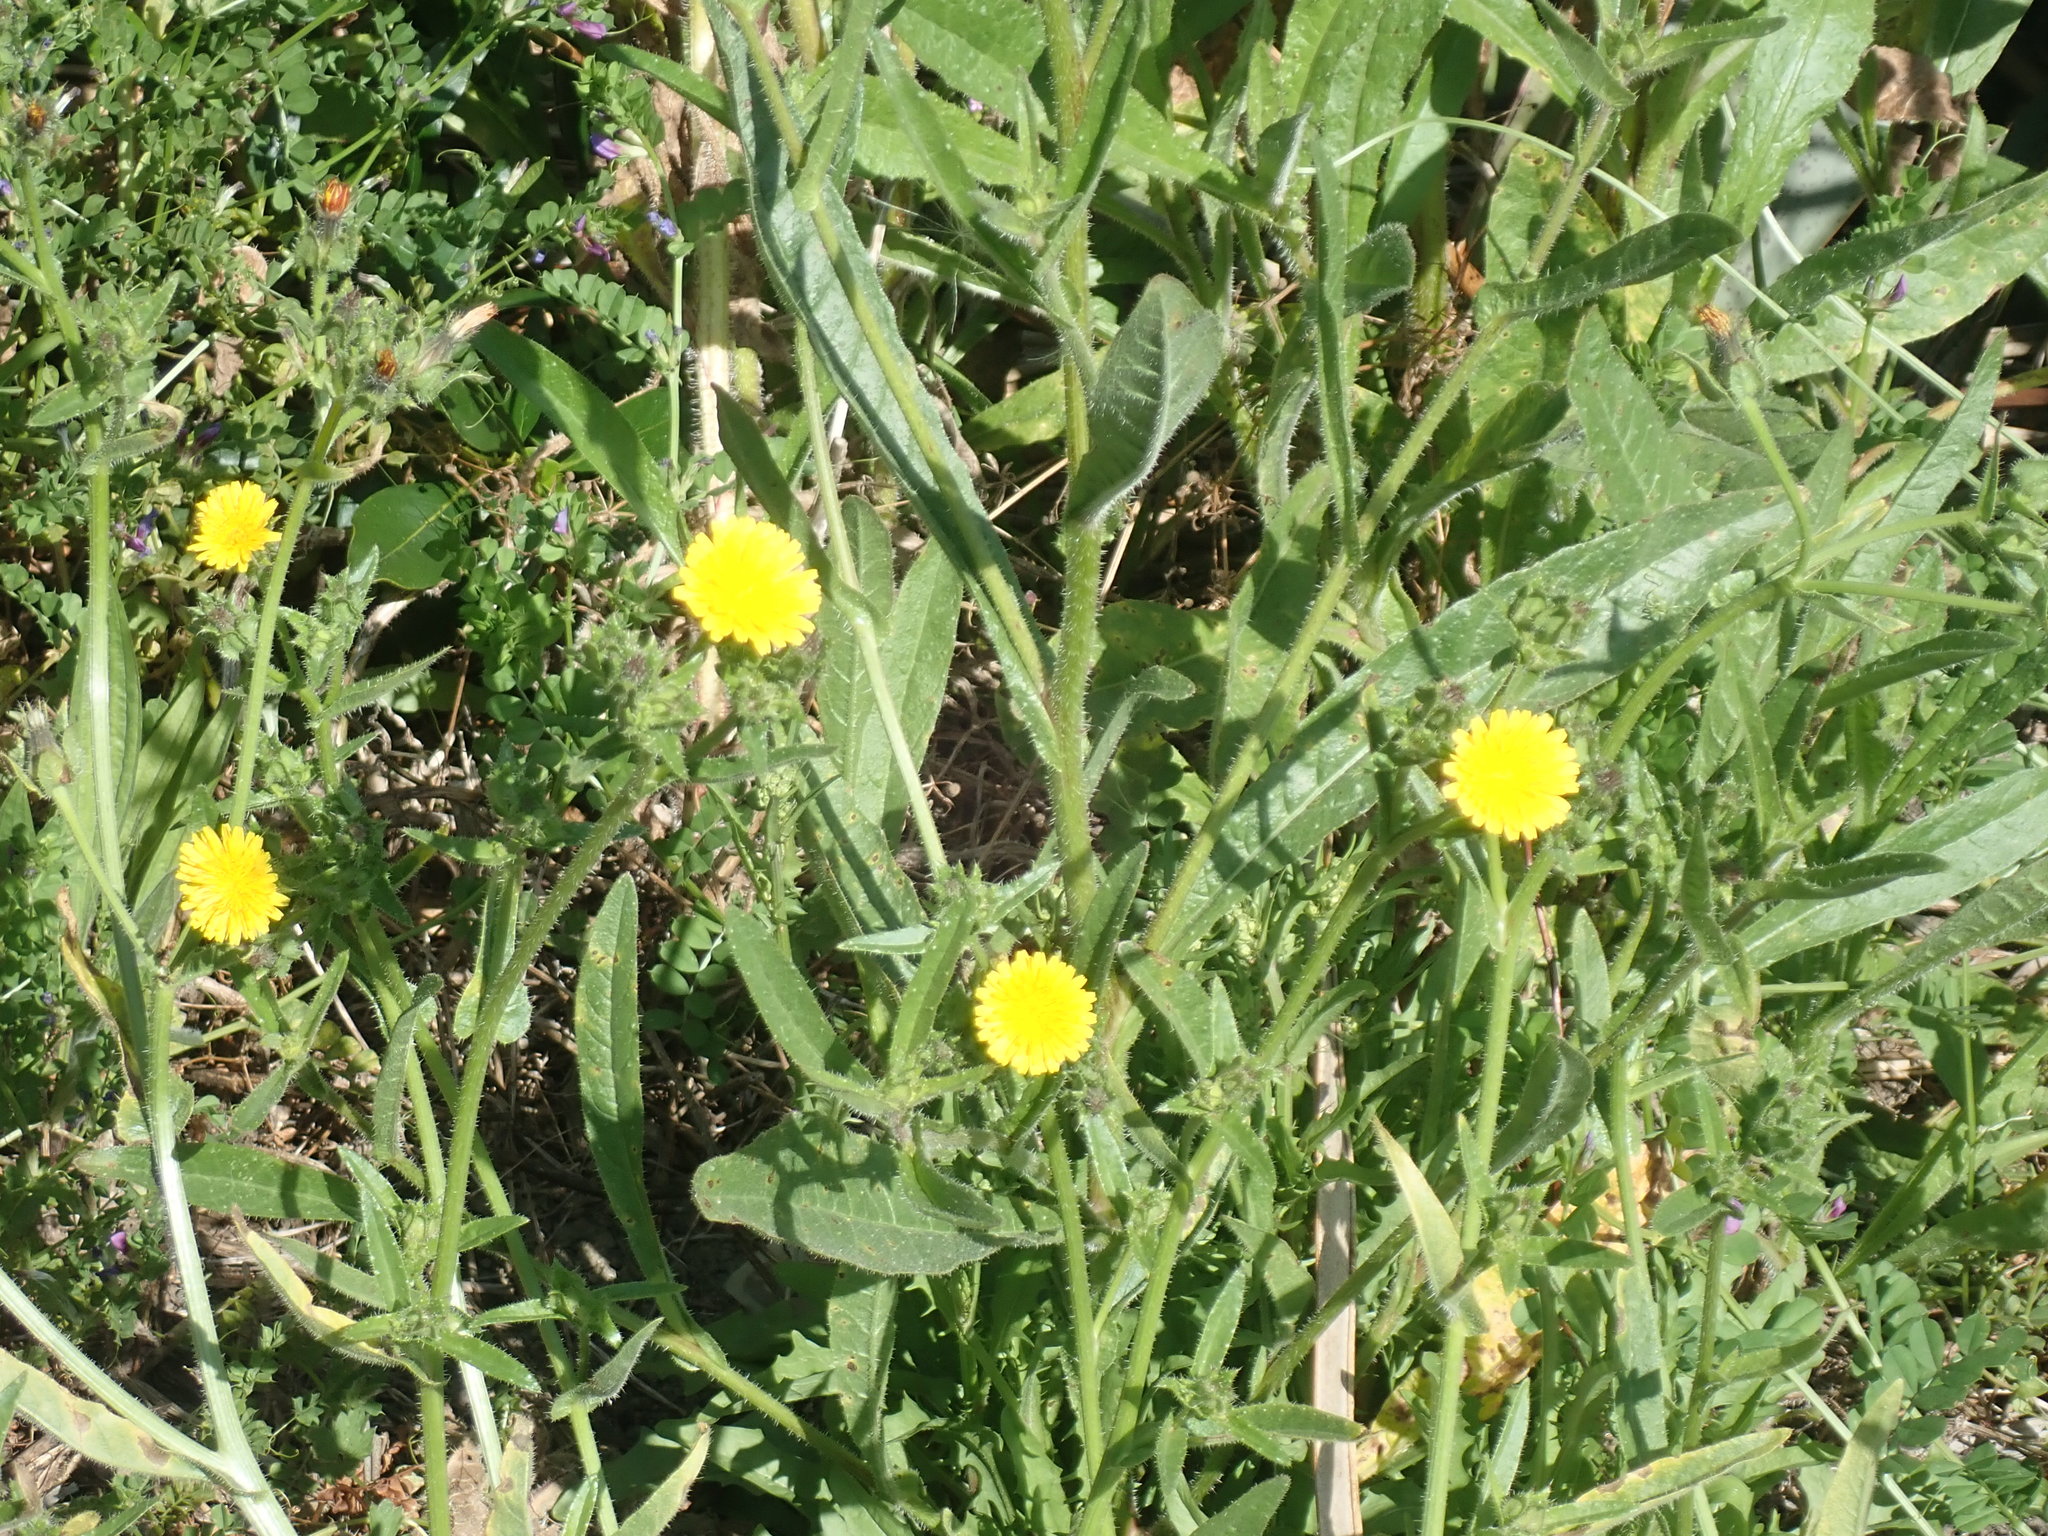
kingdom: Plantae
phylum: Tracheophyta
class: Magnoliopsida
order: Asterales
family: Asteraceae
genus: Helminthotheca
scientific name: Helminthotheca echioides
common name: Ox-tongue
